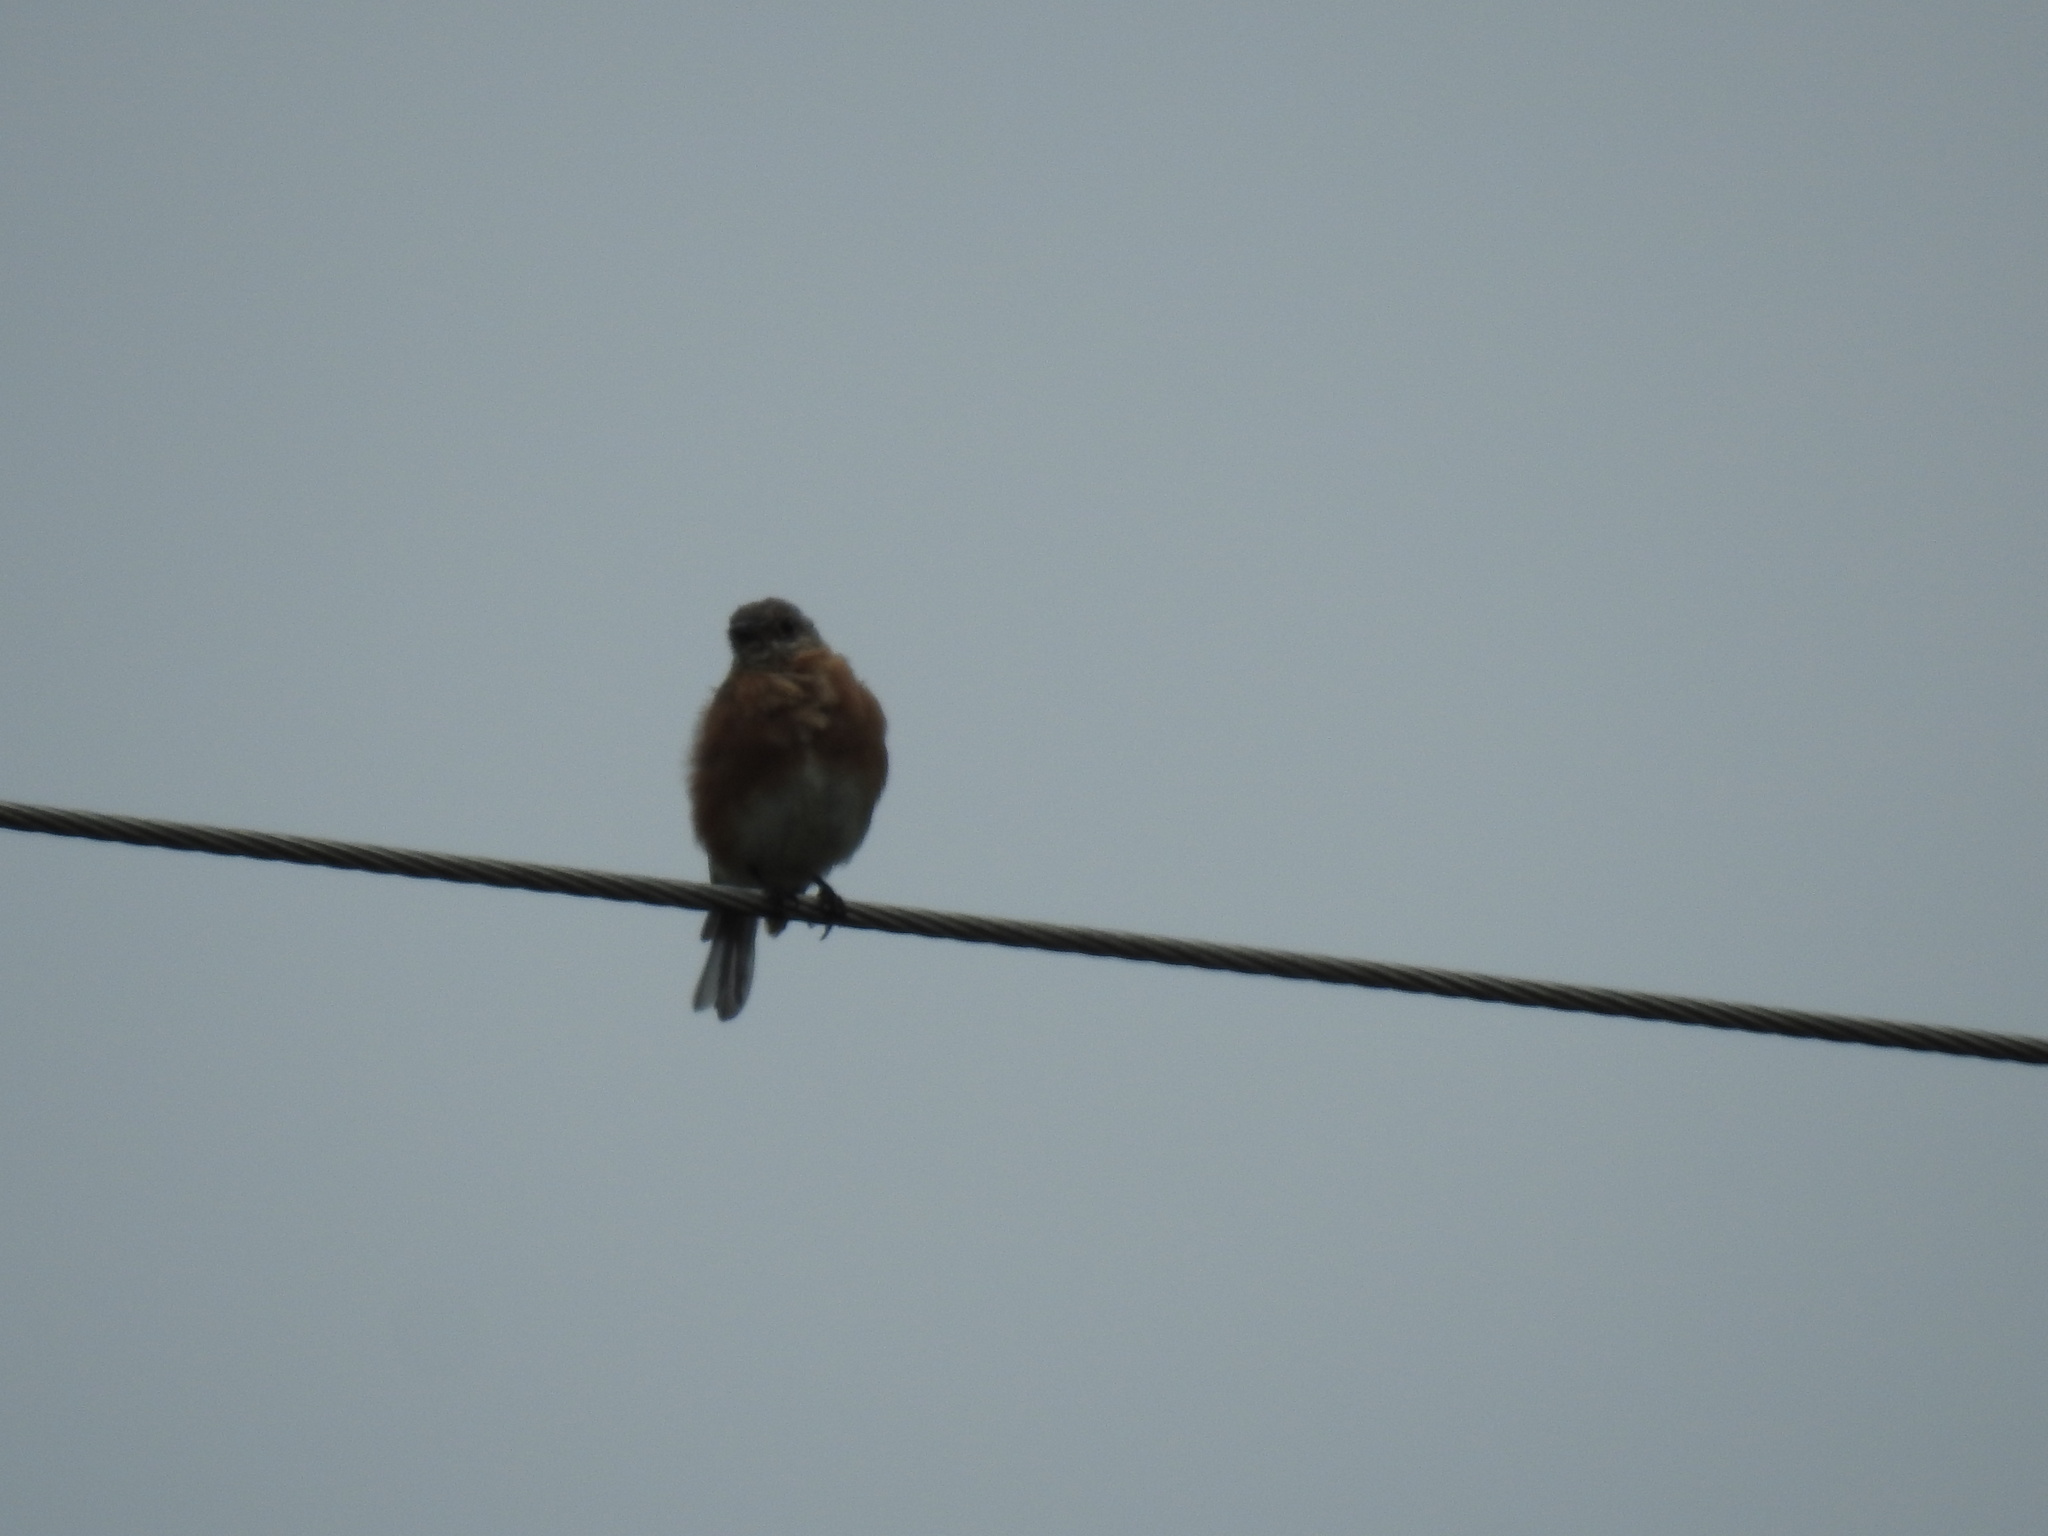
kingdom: Animalia
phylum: Chordata
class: Aves
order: Passeriformes
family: Turdidae
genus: Sialia
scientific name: Sialia sialis
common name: Eastern bluebird
